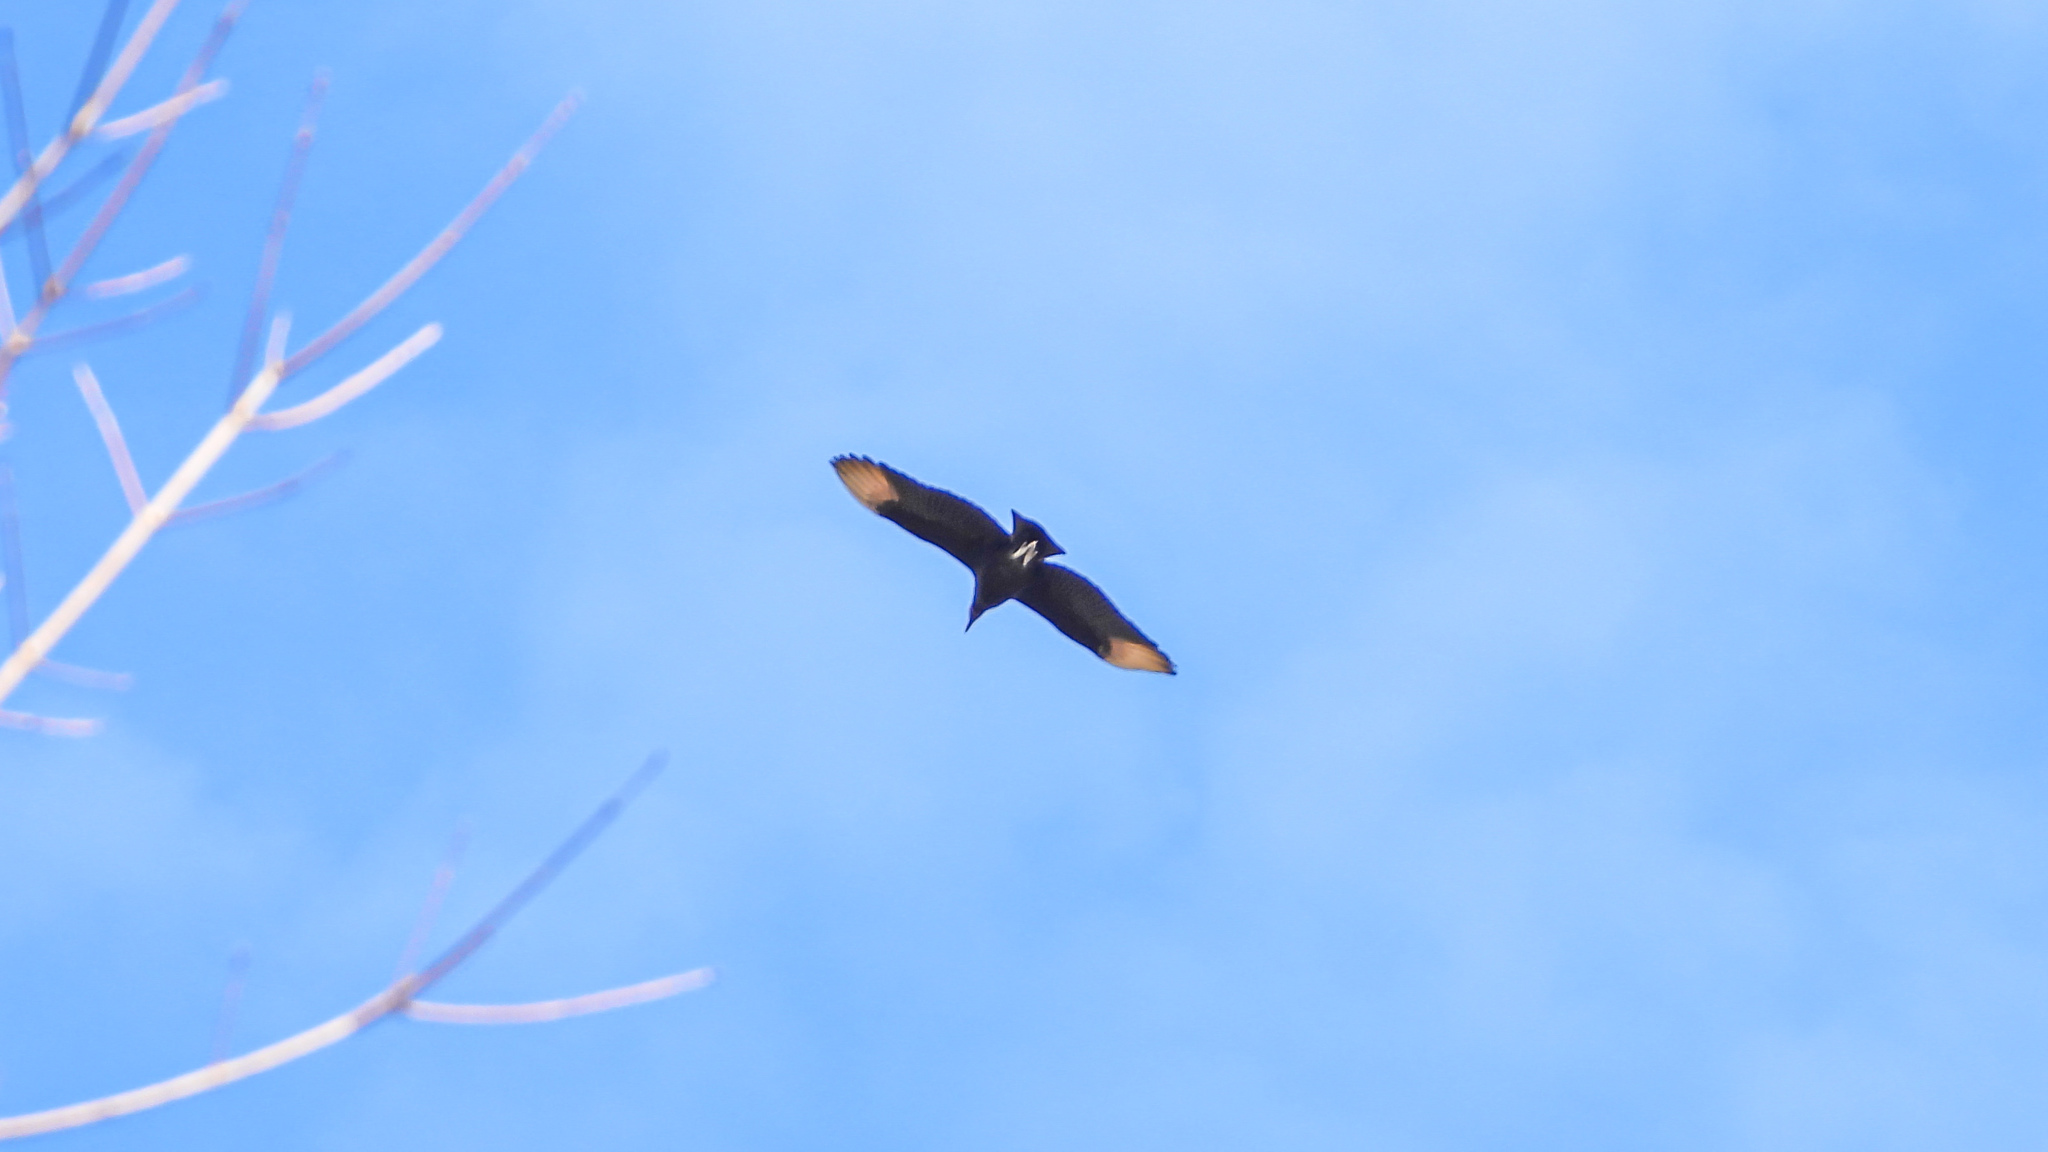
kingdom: Animalia
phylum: Chordata
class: Aves
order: Accipitriformes
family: Cathartidae
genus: Coragyps
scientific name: Coragyps atratus
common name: Black vulture
